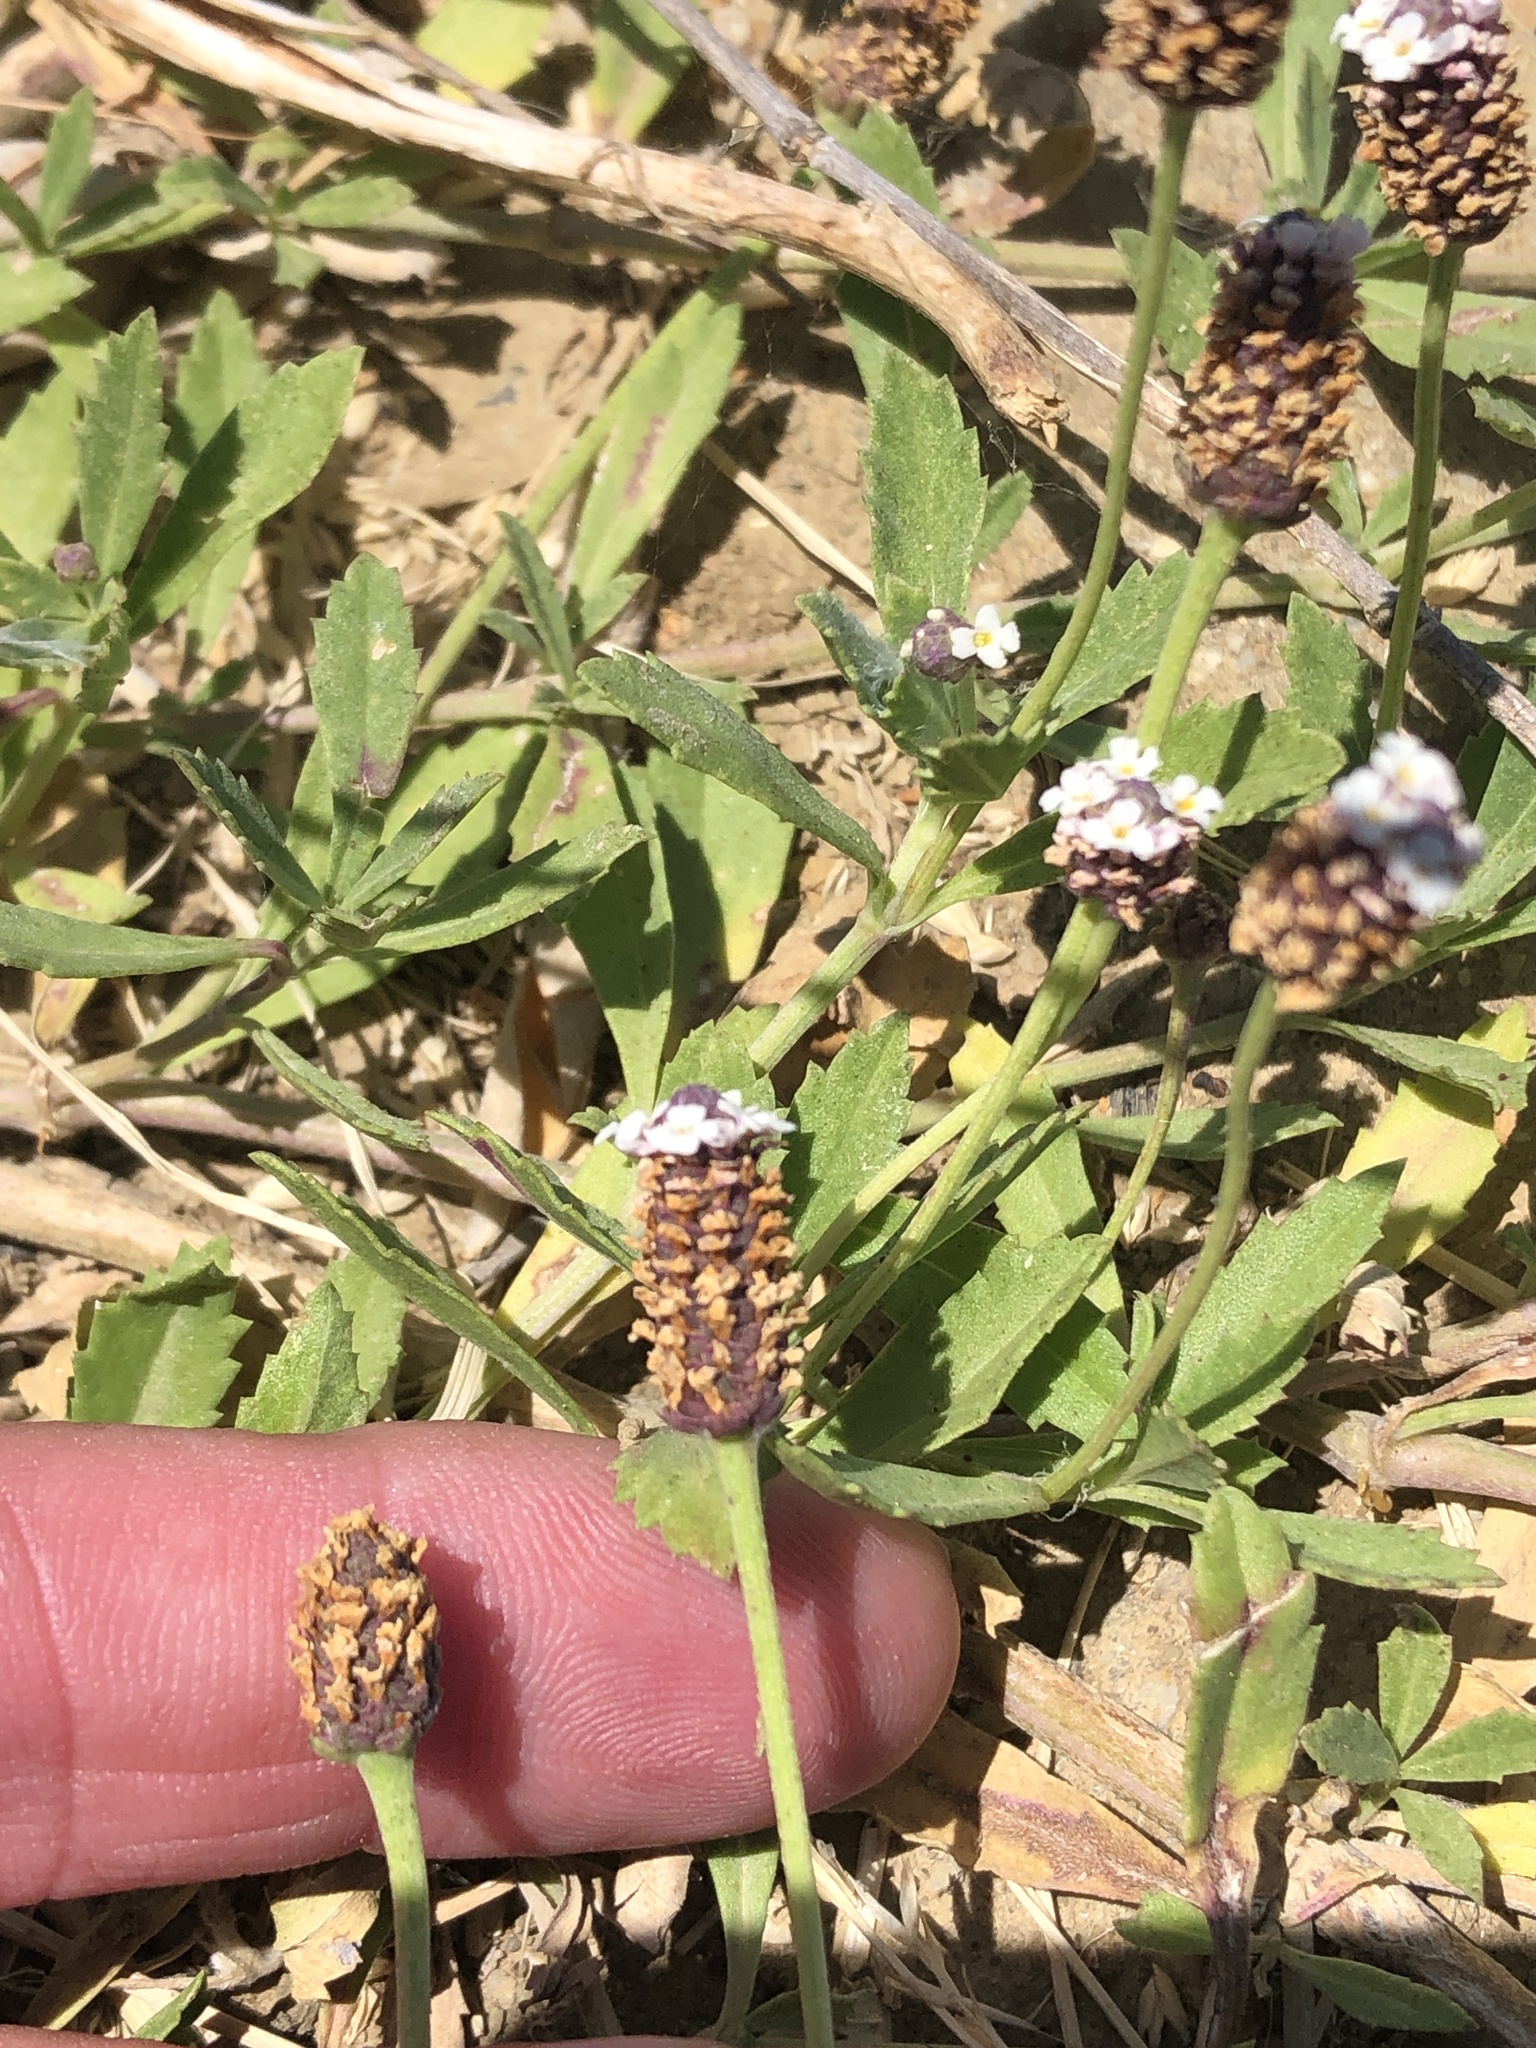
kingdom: Plantae
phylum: Tracheophyta
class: Magnoliopsida
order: Lamiales
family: Verbenaceae
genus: Phyla
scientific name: Phyla nodiflora
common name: Frogfruit
